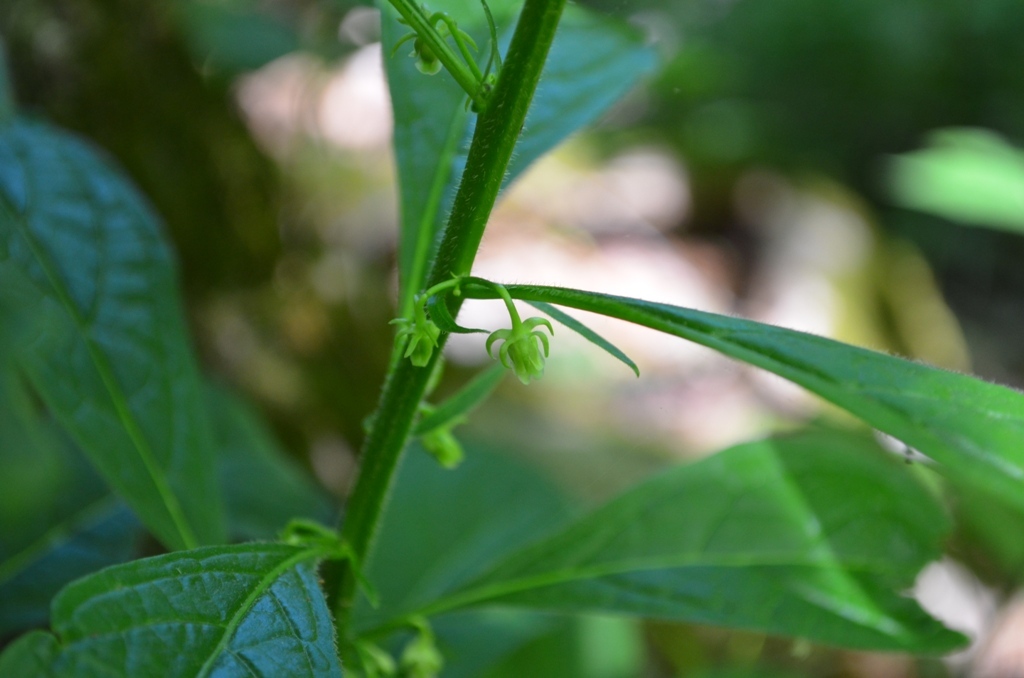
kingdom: Plantae
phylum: Tracheophyta
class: Magnoliopsida
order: Malpighiales
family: Violaceae
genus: Cubelium
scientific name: Cubelium concolor
